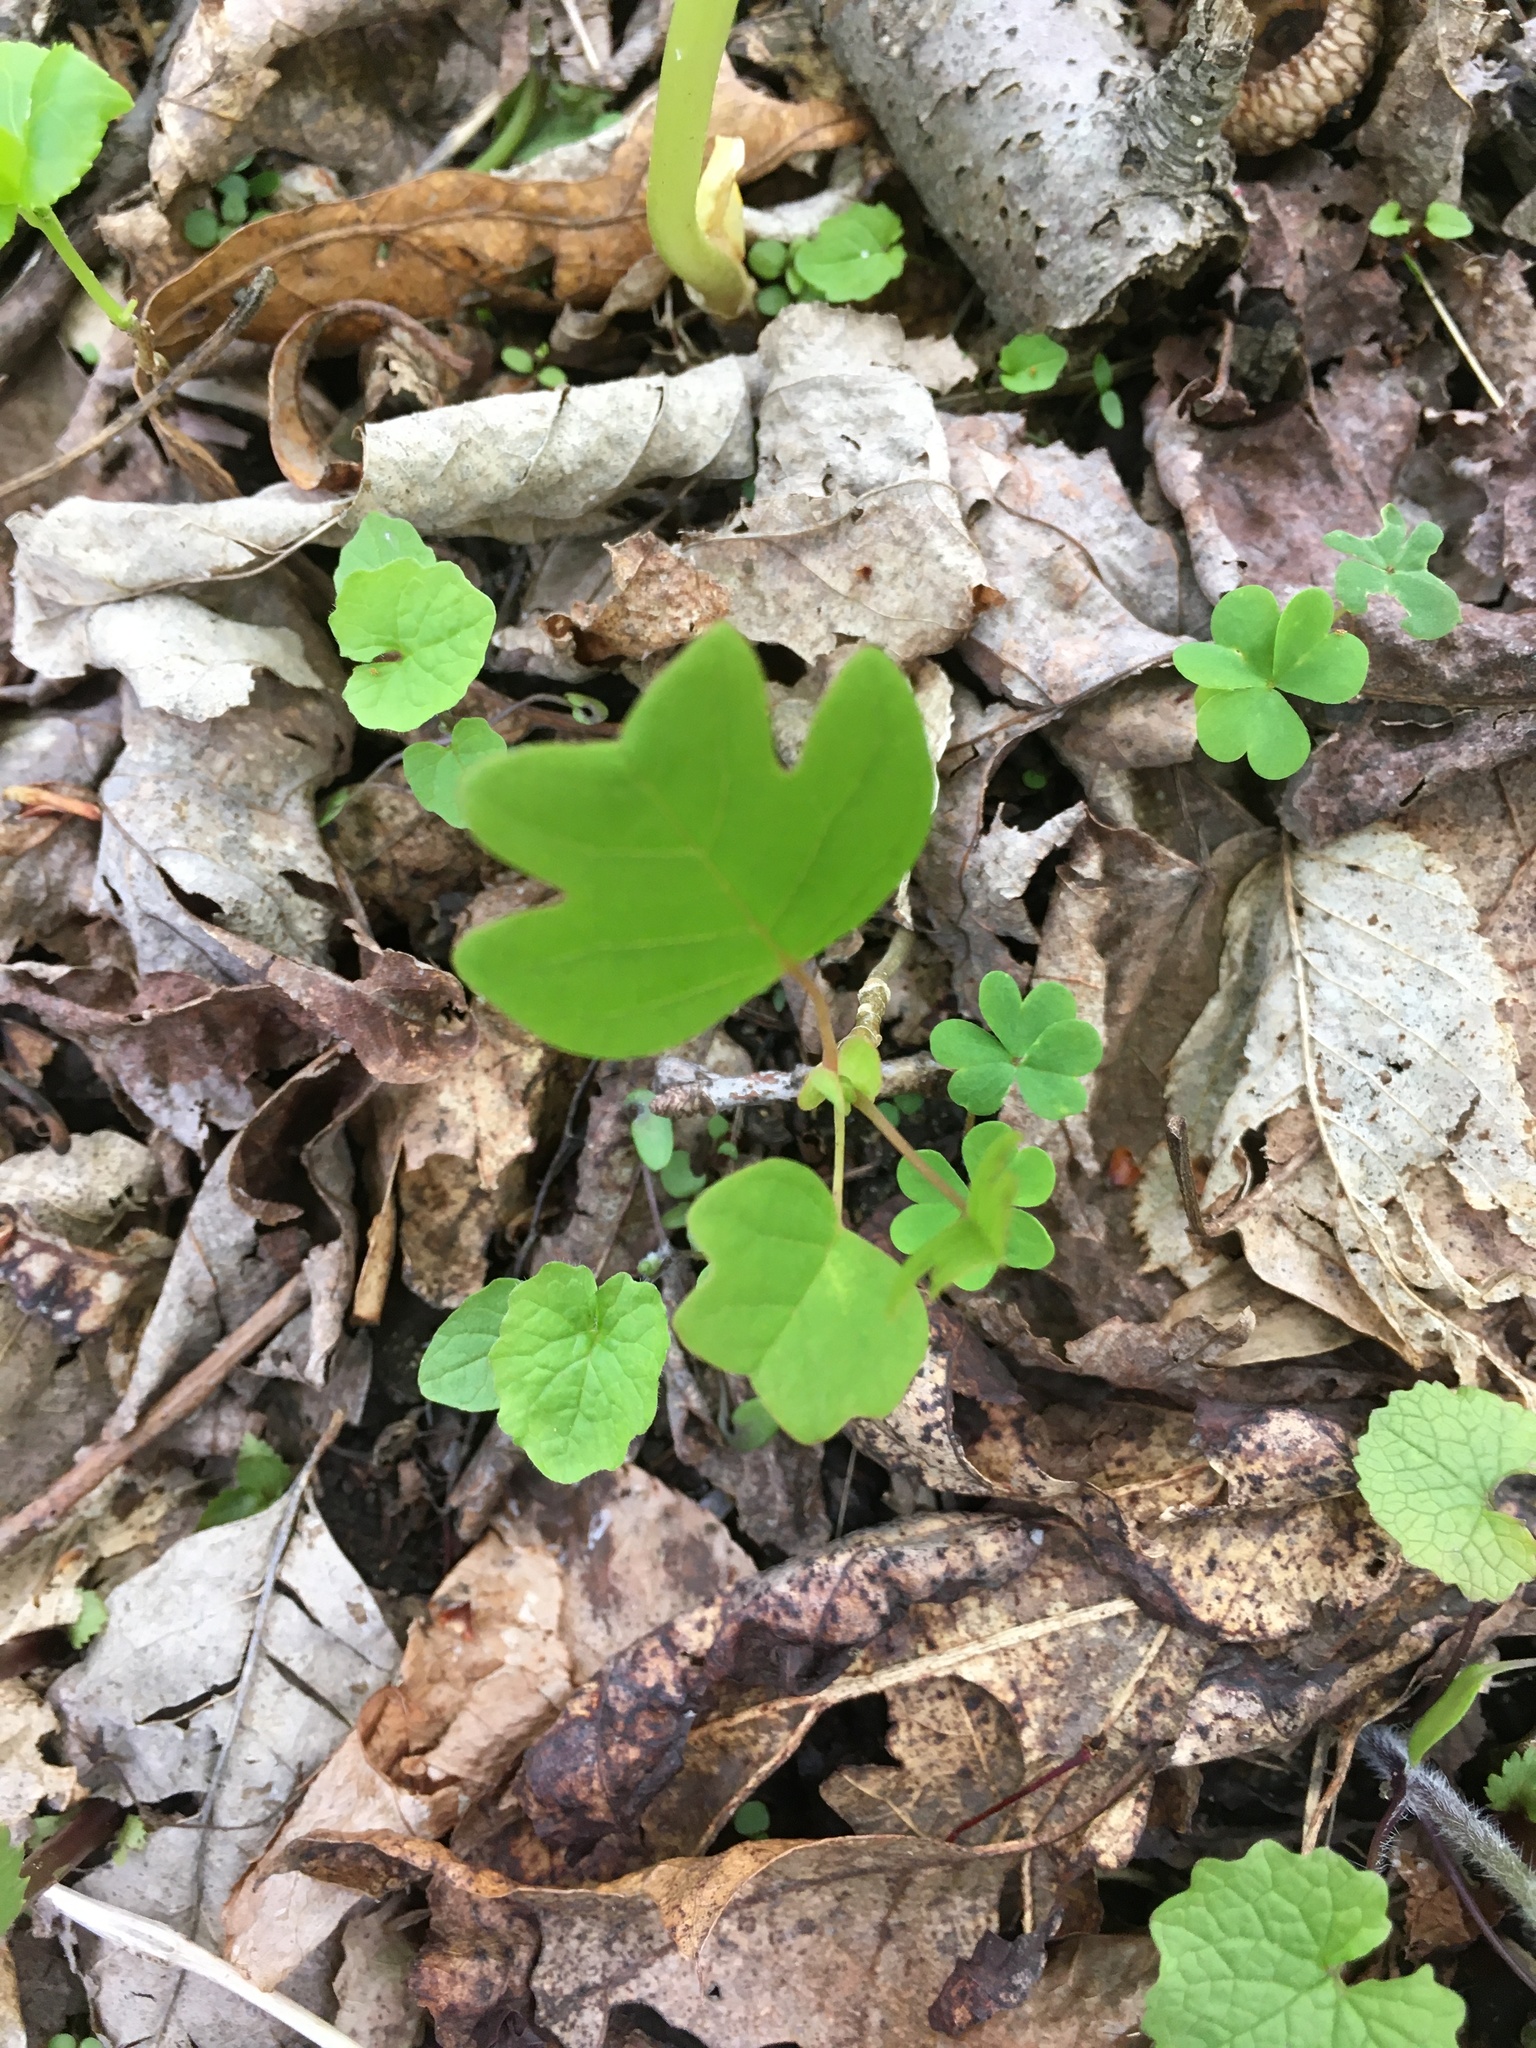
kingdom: Plantae
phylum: Tracheophyta
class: Magnoliopsida
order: Magnoliales
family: Magnoliaceae
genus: Liriodendron
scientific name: Liriodendron tulipifera
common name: Tulip tree
